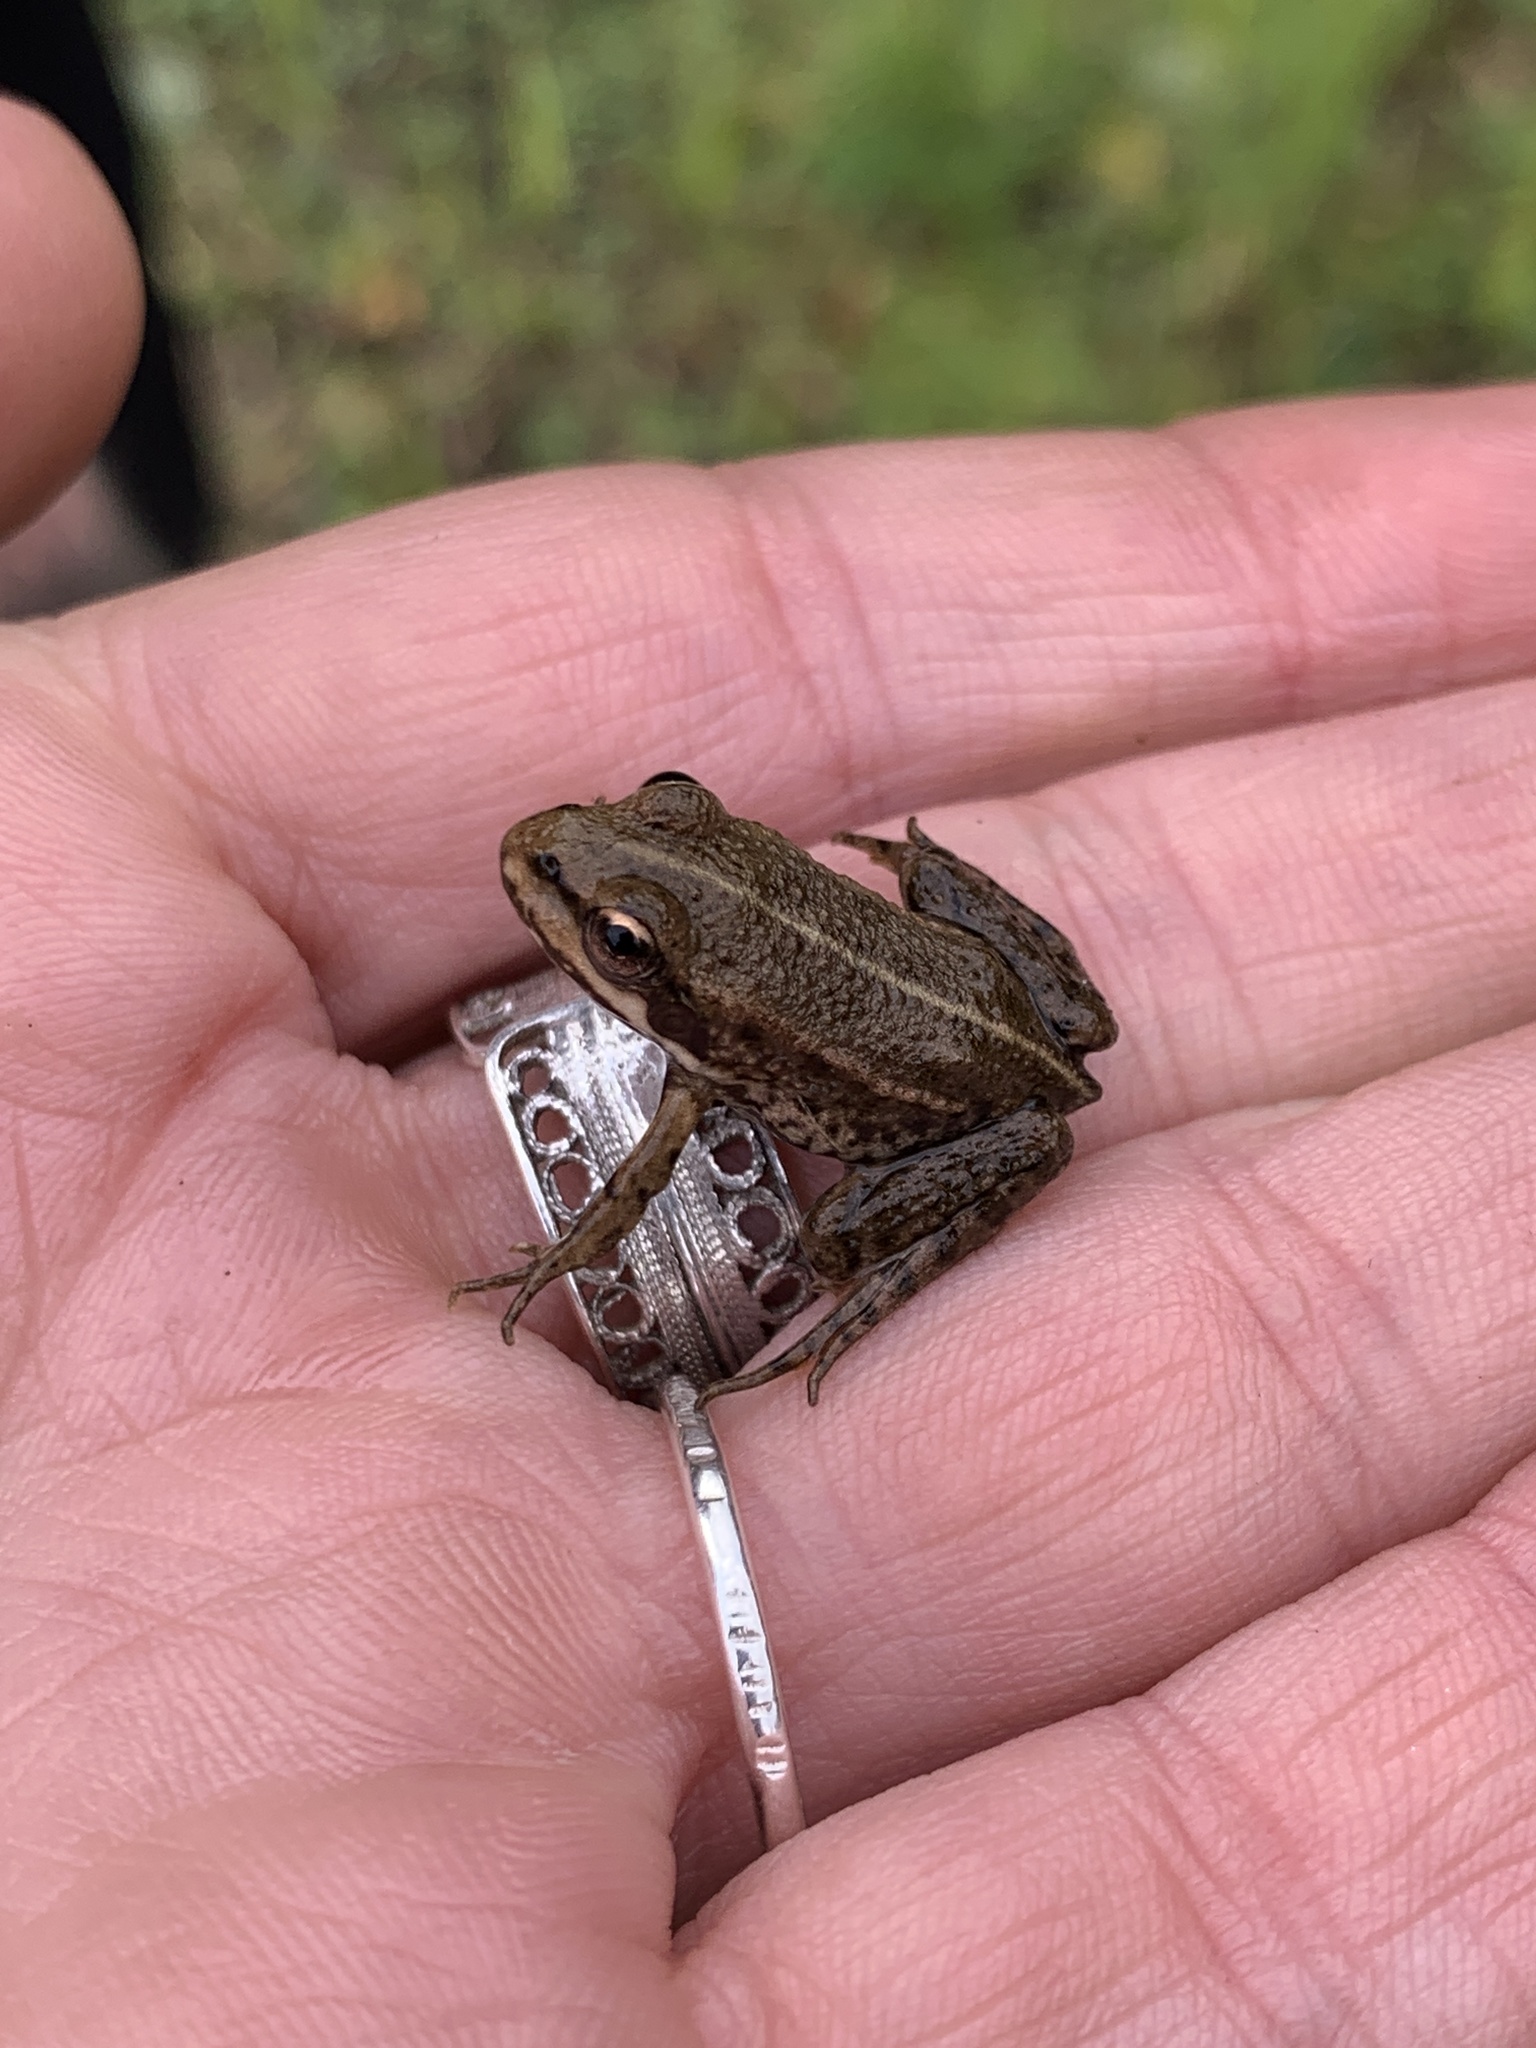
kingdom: Animalia
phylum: Chordata
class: Amphibia
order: Anura
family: Ranidae
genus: Pelophylax
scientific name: Pelophylax
